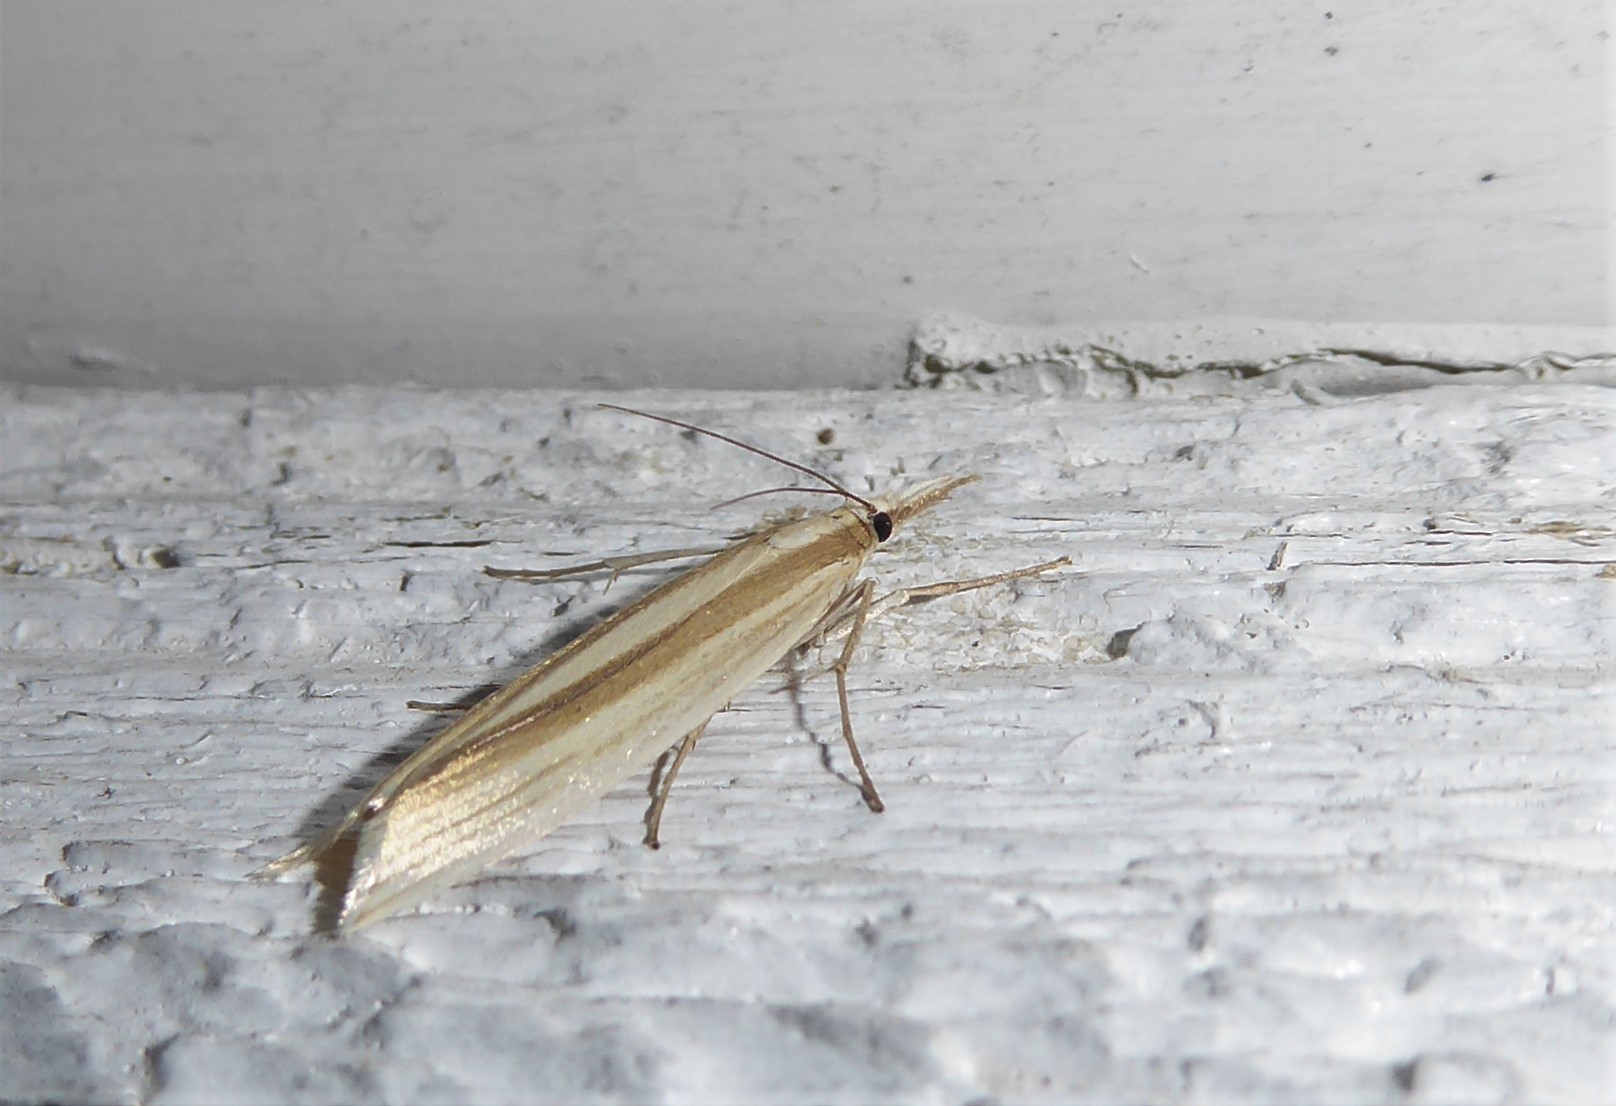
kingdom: Animalia
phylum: Arthropoda
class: Insecta
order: Lepidoptera
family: Crambidae
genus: Orocrambus
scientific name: Orocrambus angustipennis
